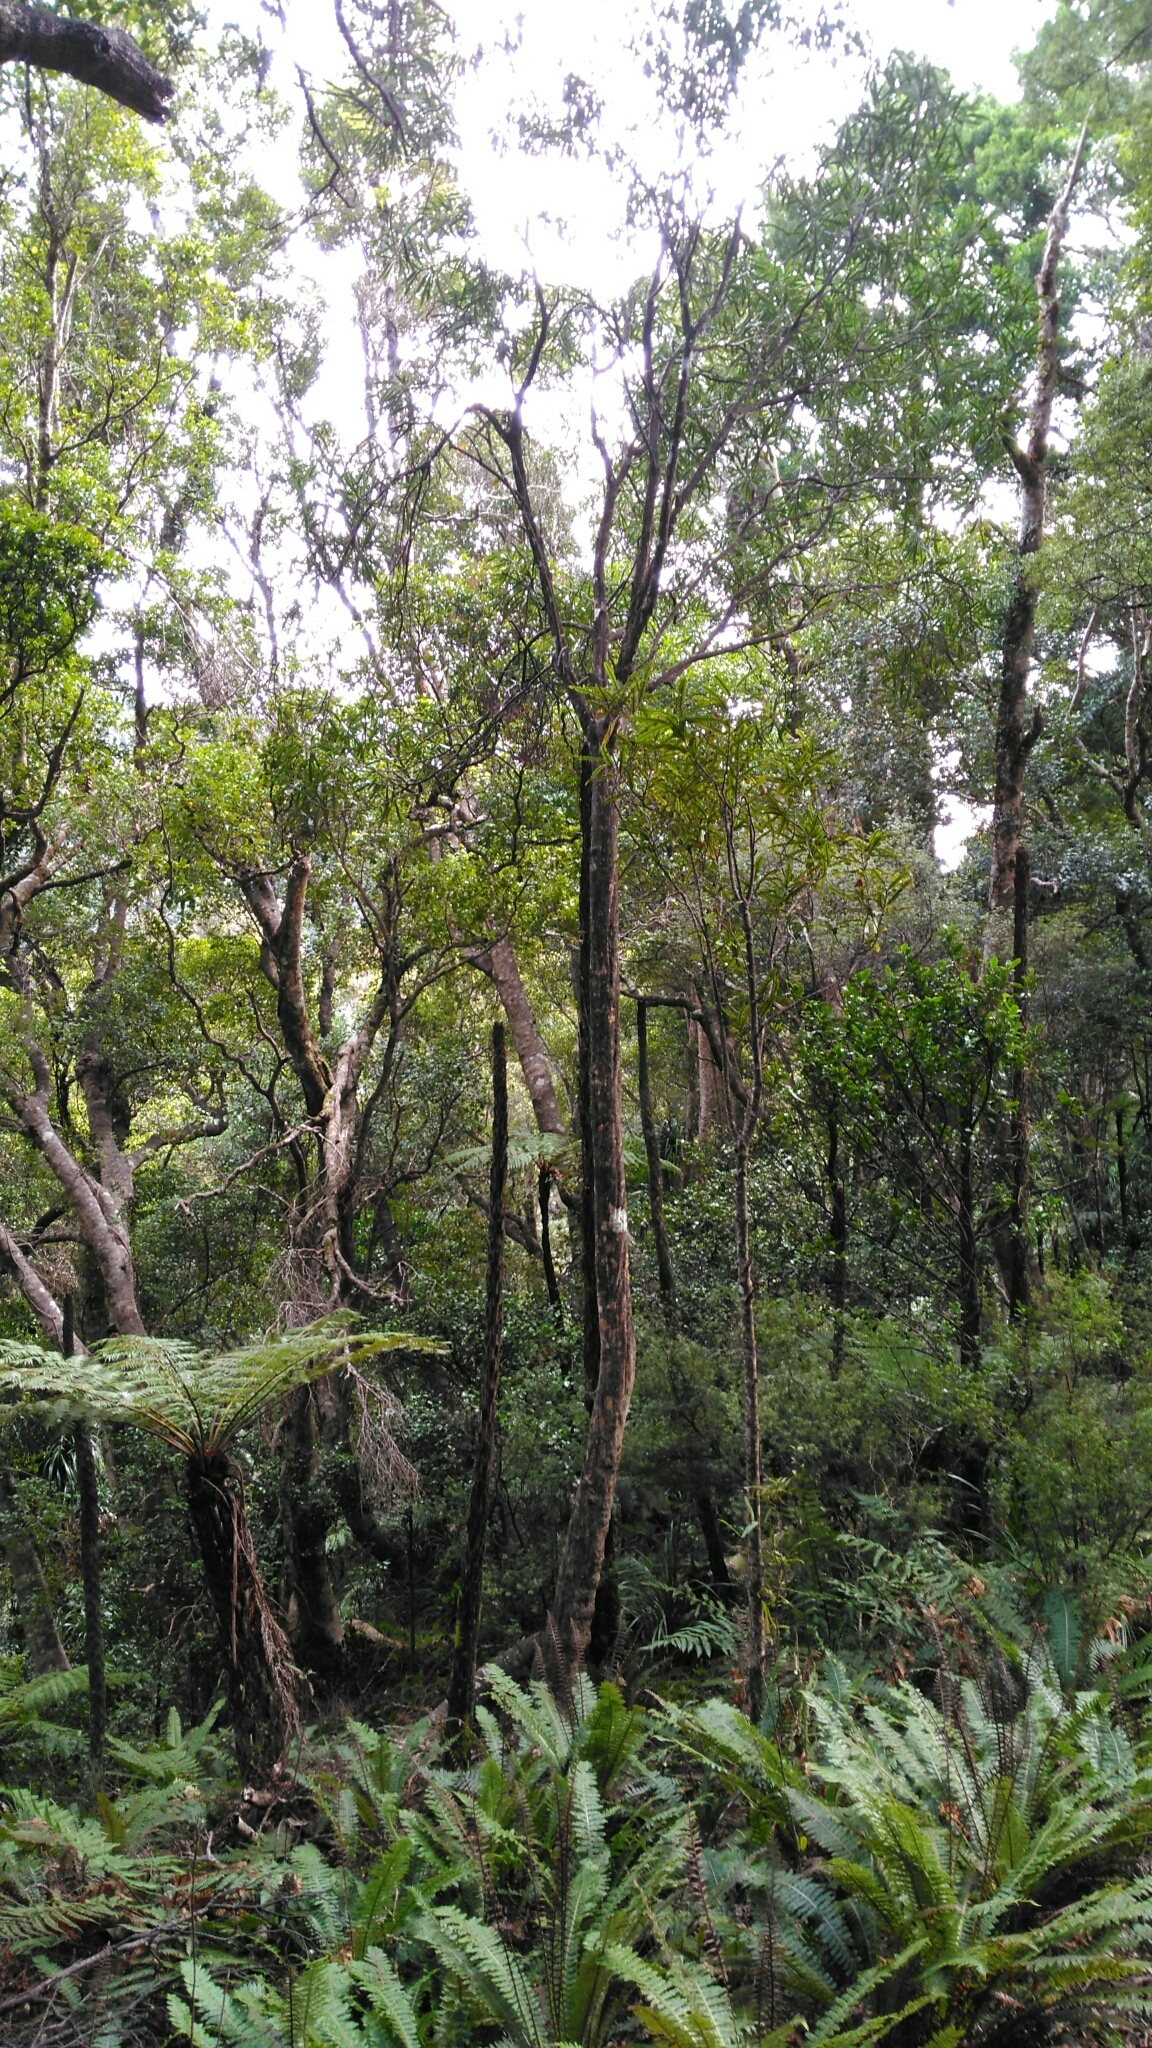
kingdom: Plantae
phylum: Tracheophyta
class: Magnoliopsida
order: Apiales
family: Araliaceae
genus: Pseudopanax
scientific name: Pseudopanax crassifolius
